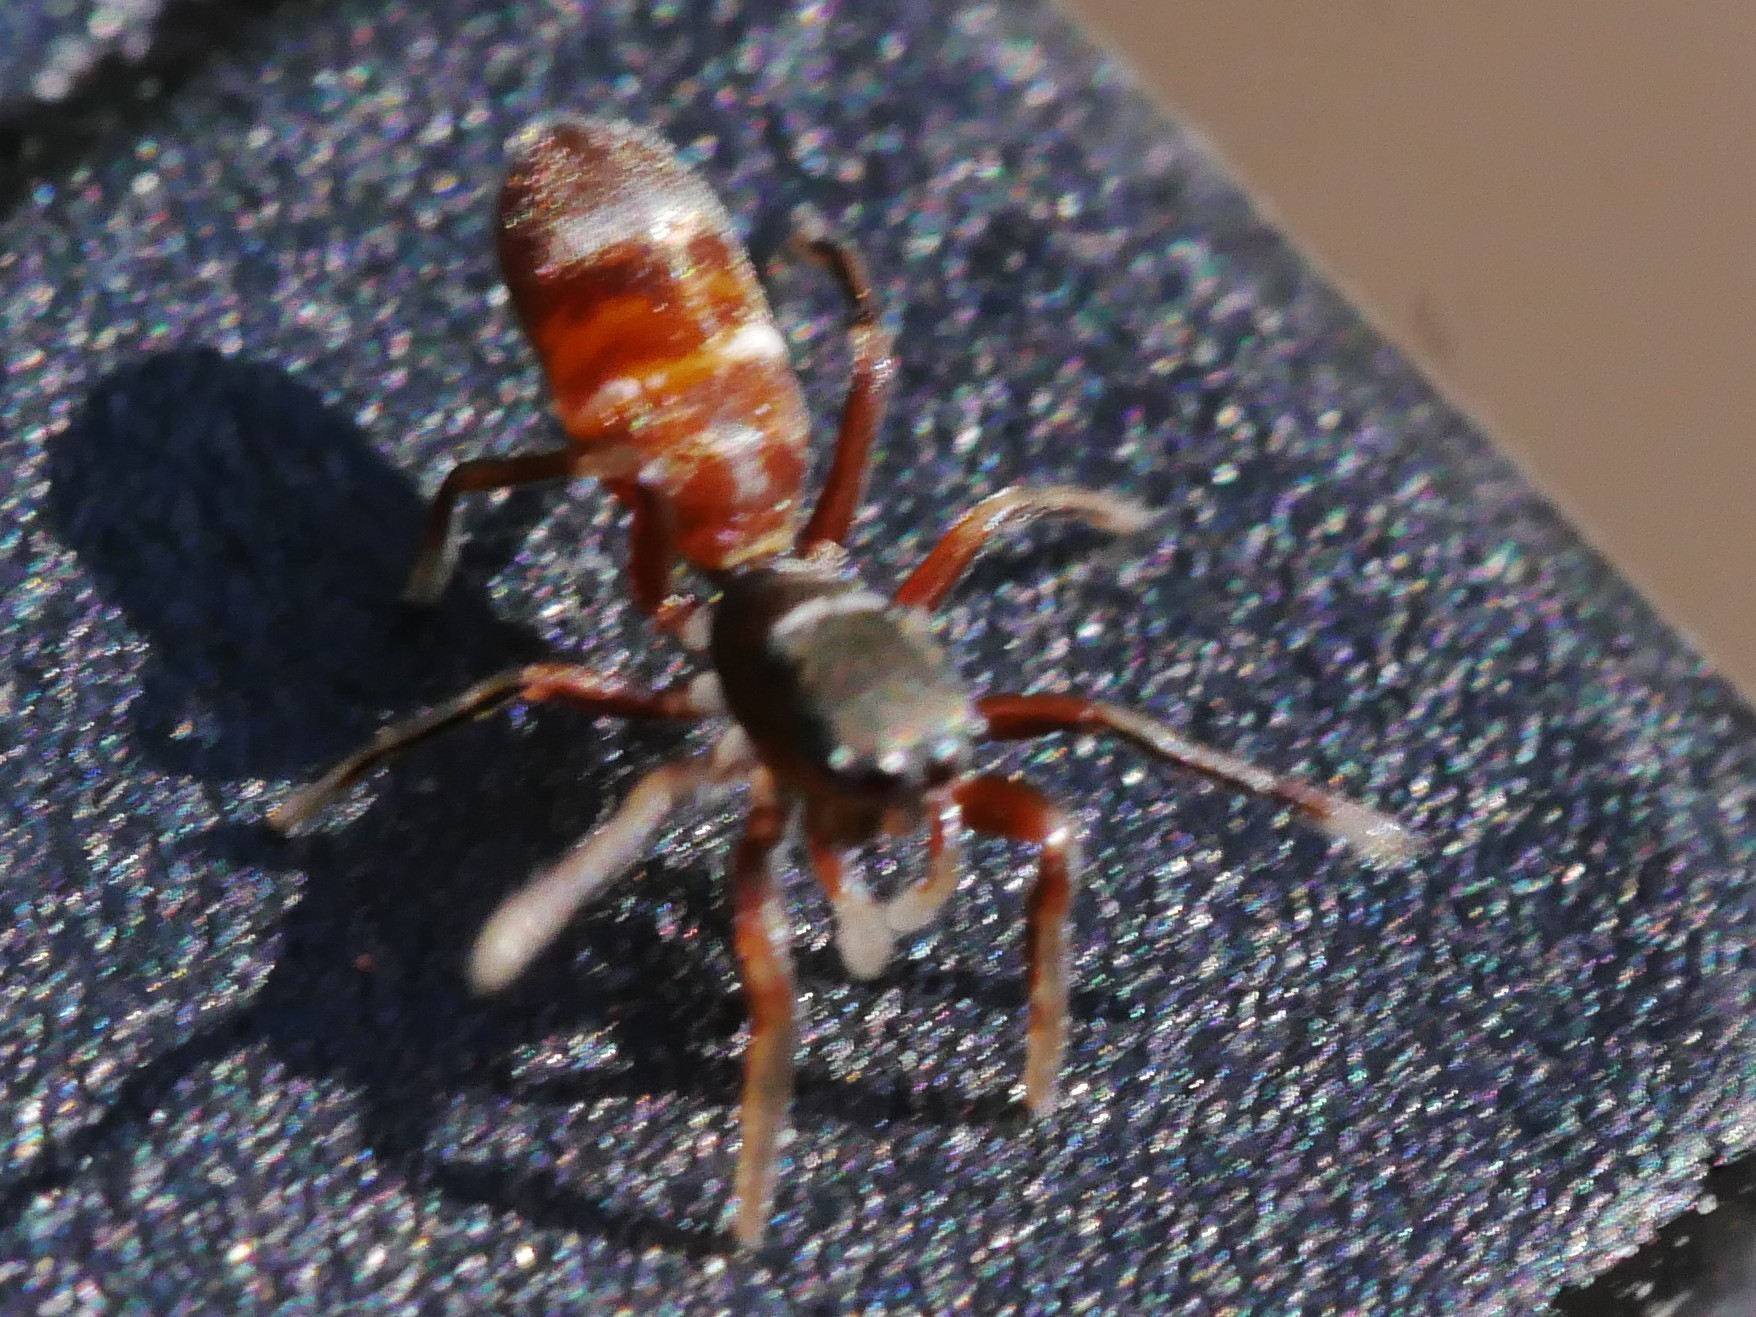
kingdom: Animalia
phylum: Arthropoda
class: Arachnida
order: Araneae
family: Salticidae
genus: Synageles
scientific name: Synageles venator
